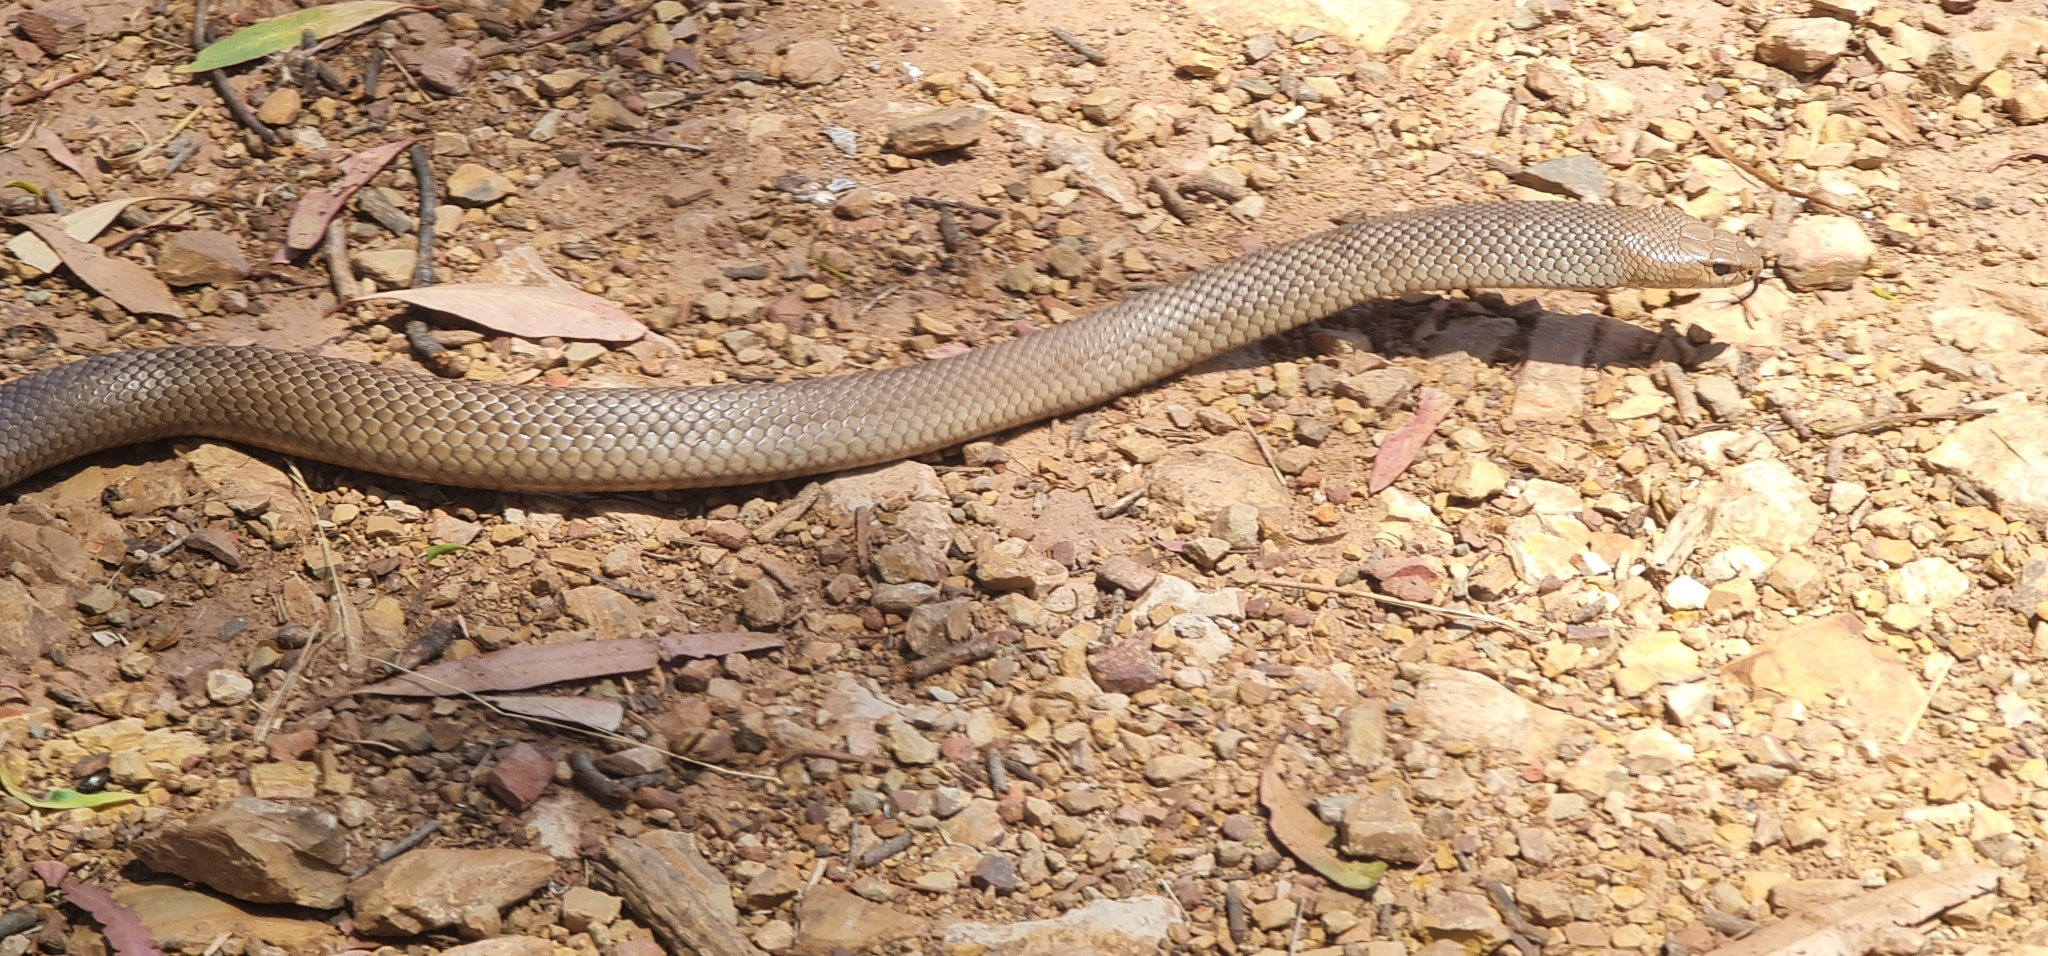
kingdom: Animalia
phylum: Chordata
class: Squamata
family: Elapidae
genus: Pseudonaja
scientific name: Pseudonaja textilis
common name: Eastern brown snake
